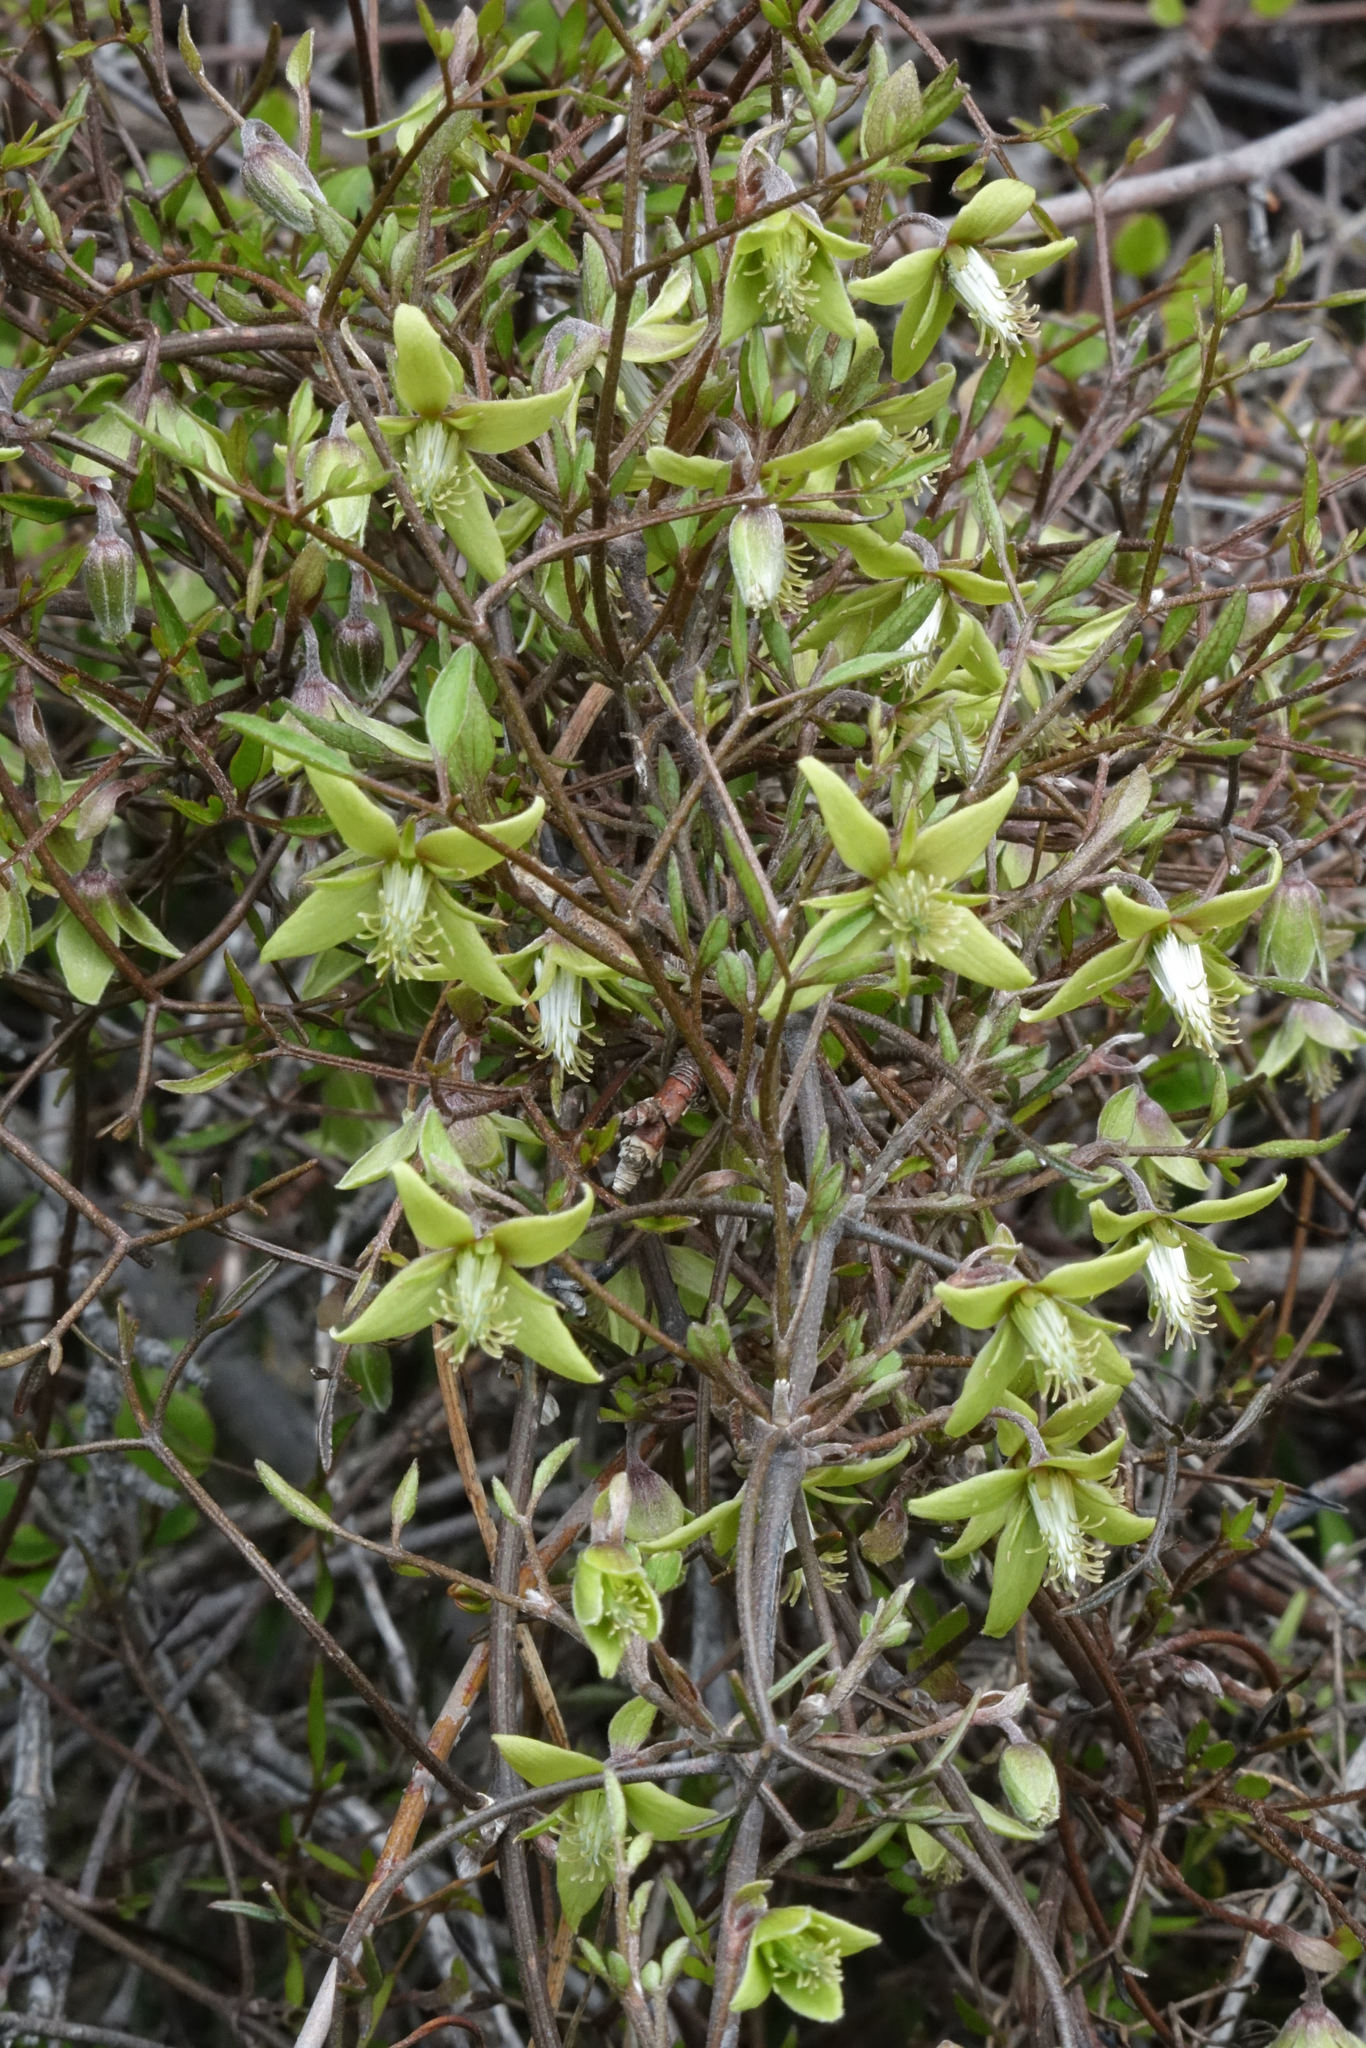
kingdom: Plantae
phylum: Tracheophyta
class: Magnoliopsida
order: Ranunculales
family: Ranunculaceae
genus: Clematis
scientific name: Clematis marata
